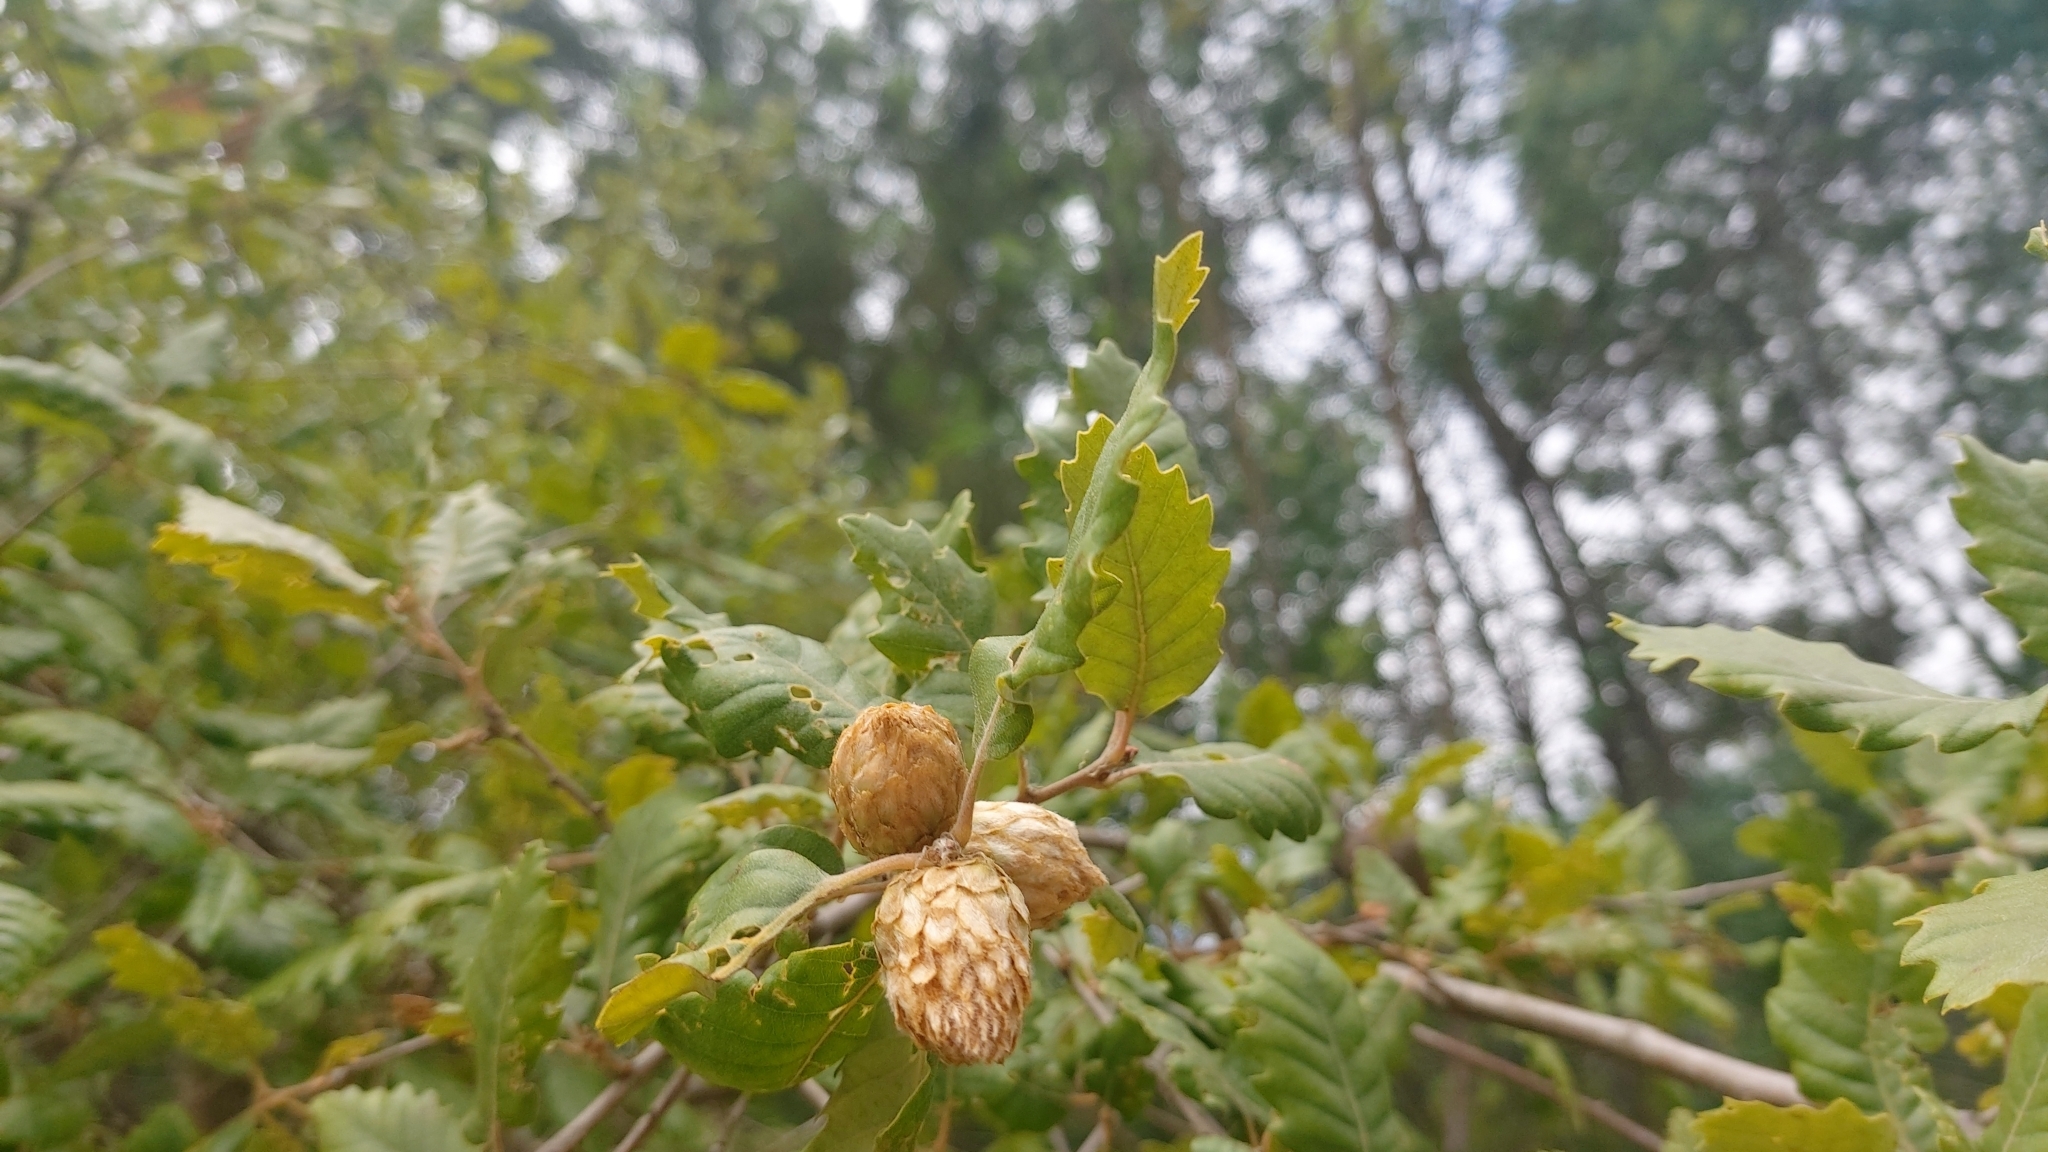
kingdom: Animalia
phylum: Arthropoda
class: Insecta
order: Hymenoptera
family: Cynipidae
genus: Andricus
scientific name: Andricus foecundatrix
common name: Artichoke gall
